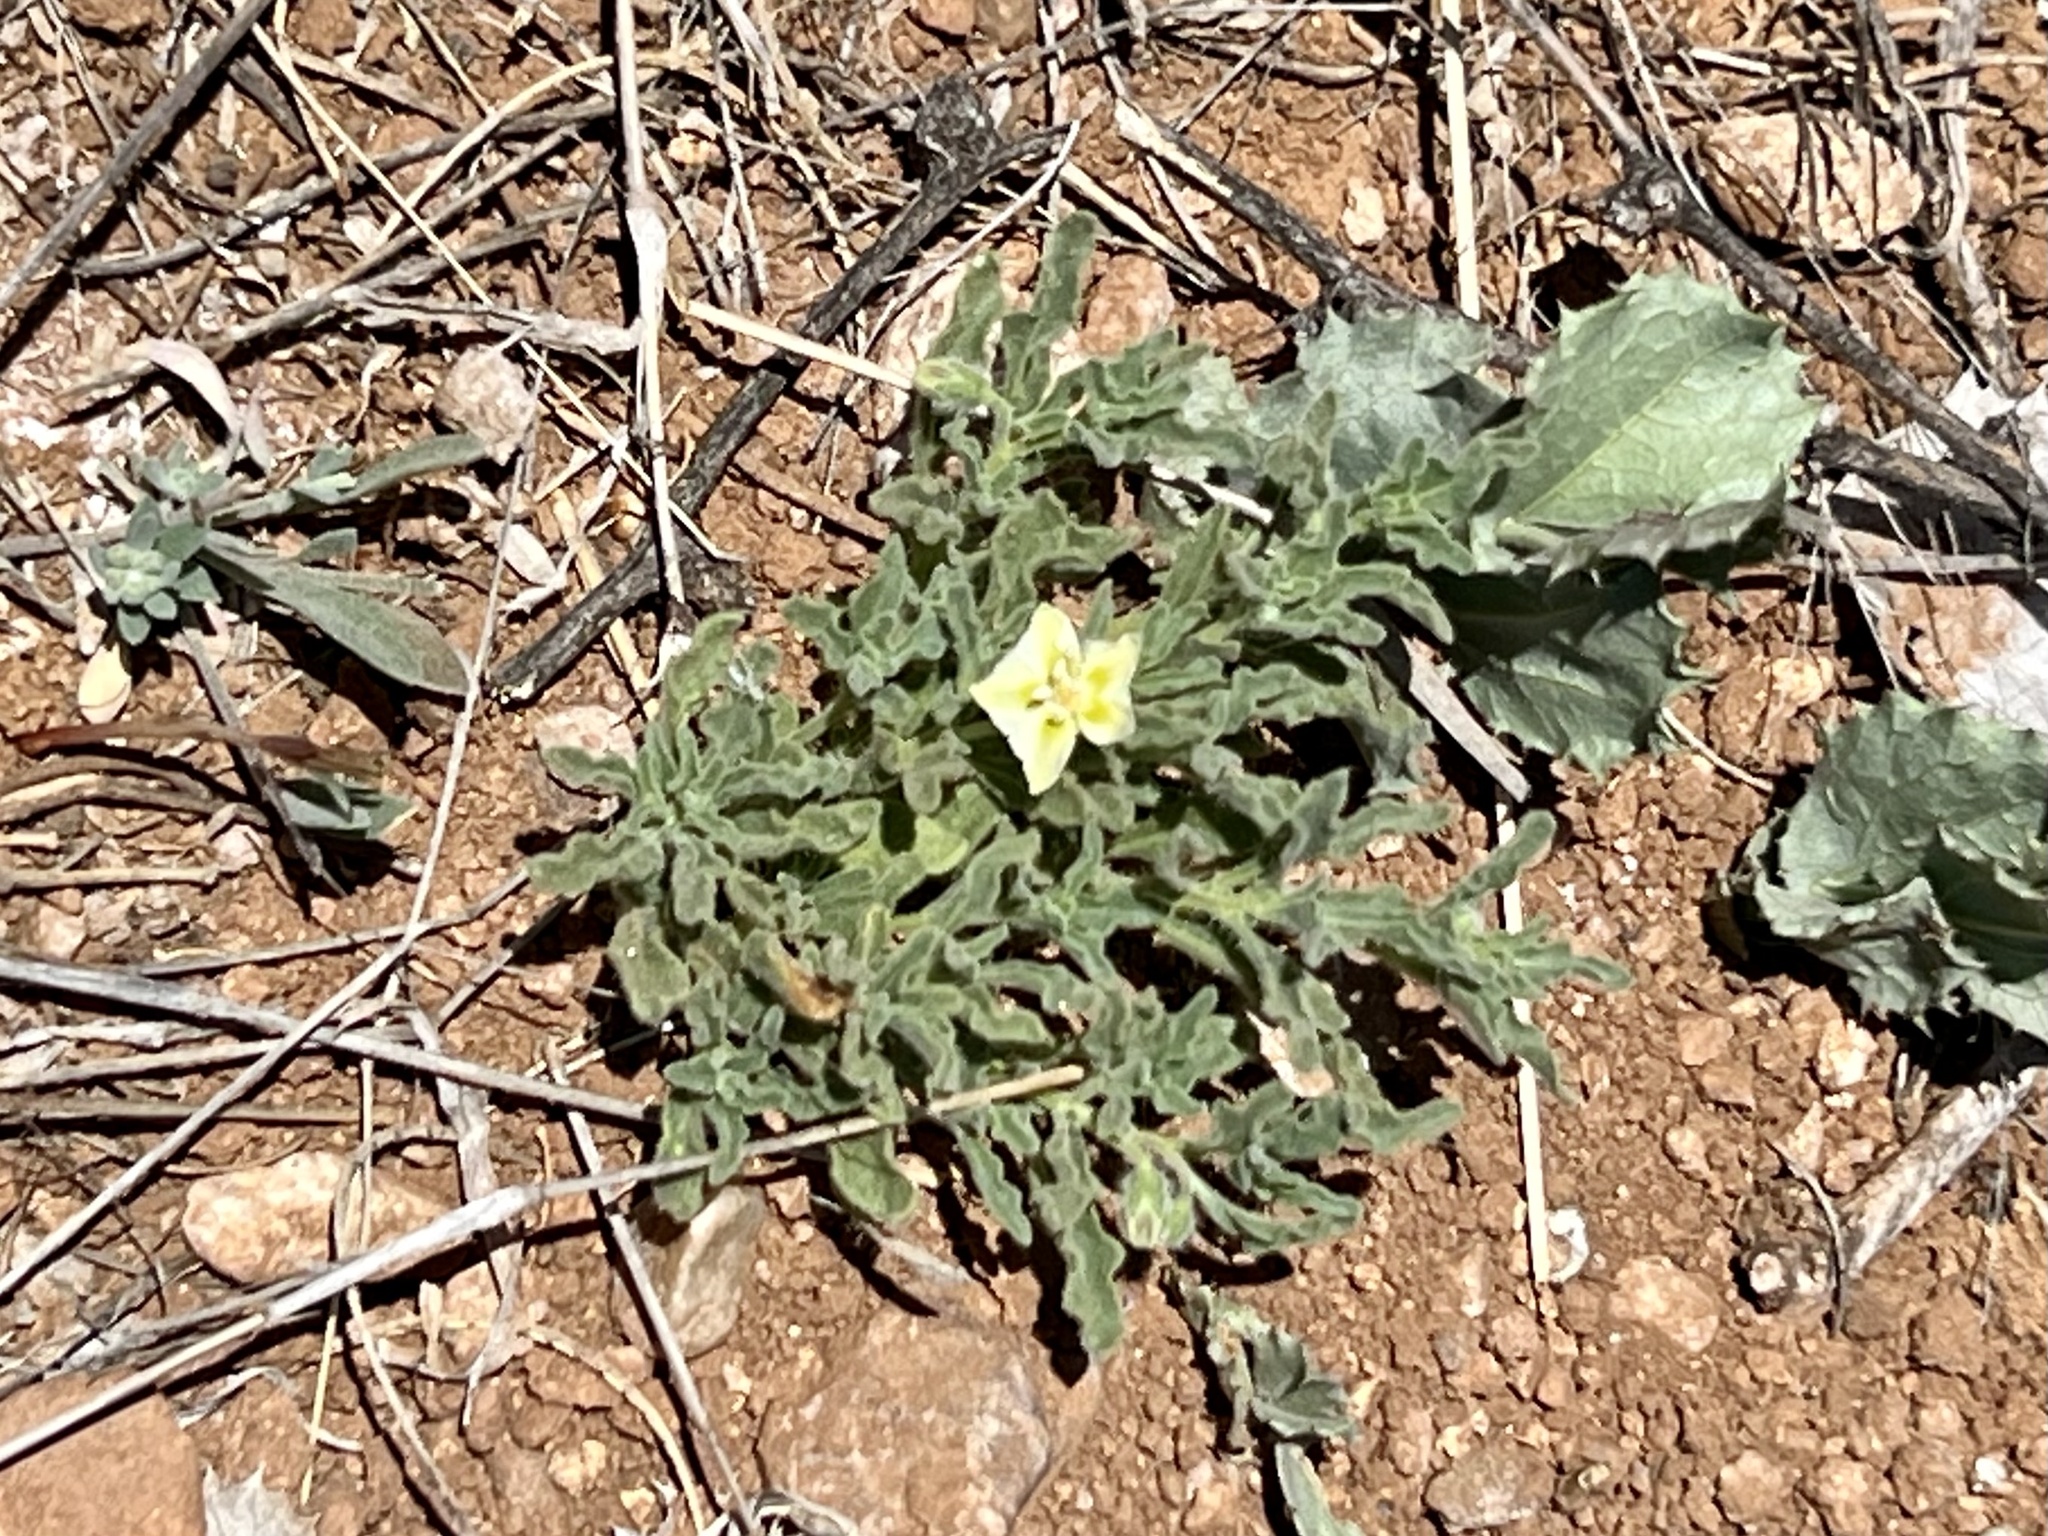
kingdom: Plantae
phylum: Tracheophyta
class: Magnoliopsida
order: Solanales
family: Solanaceae
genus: Chamaesaracha
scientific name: Chamaesaracha sordida
